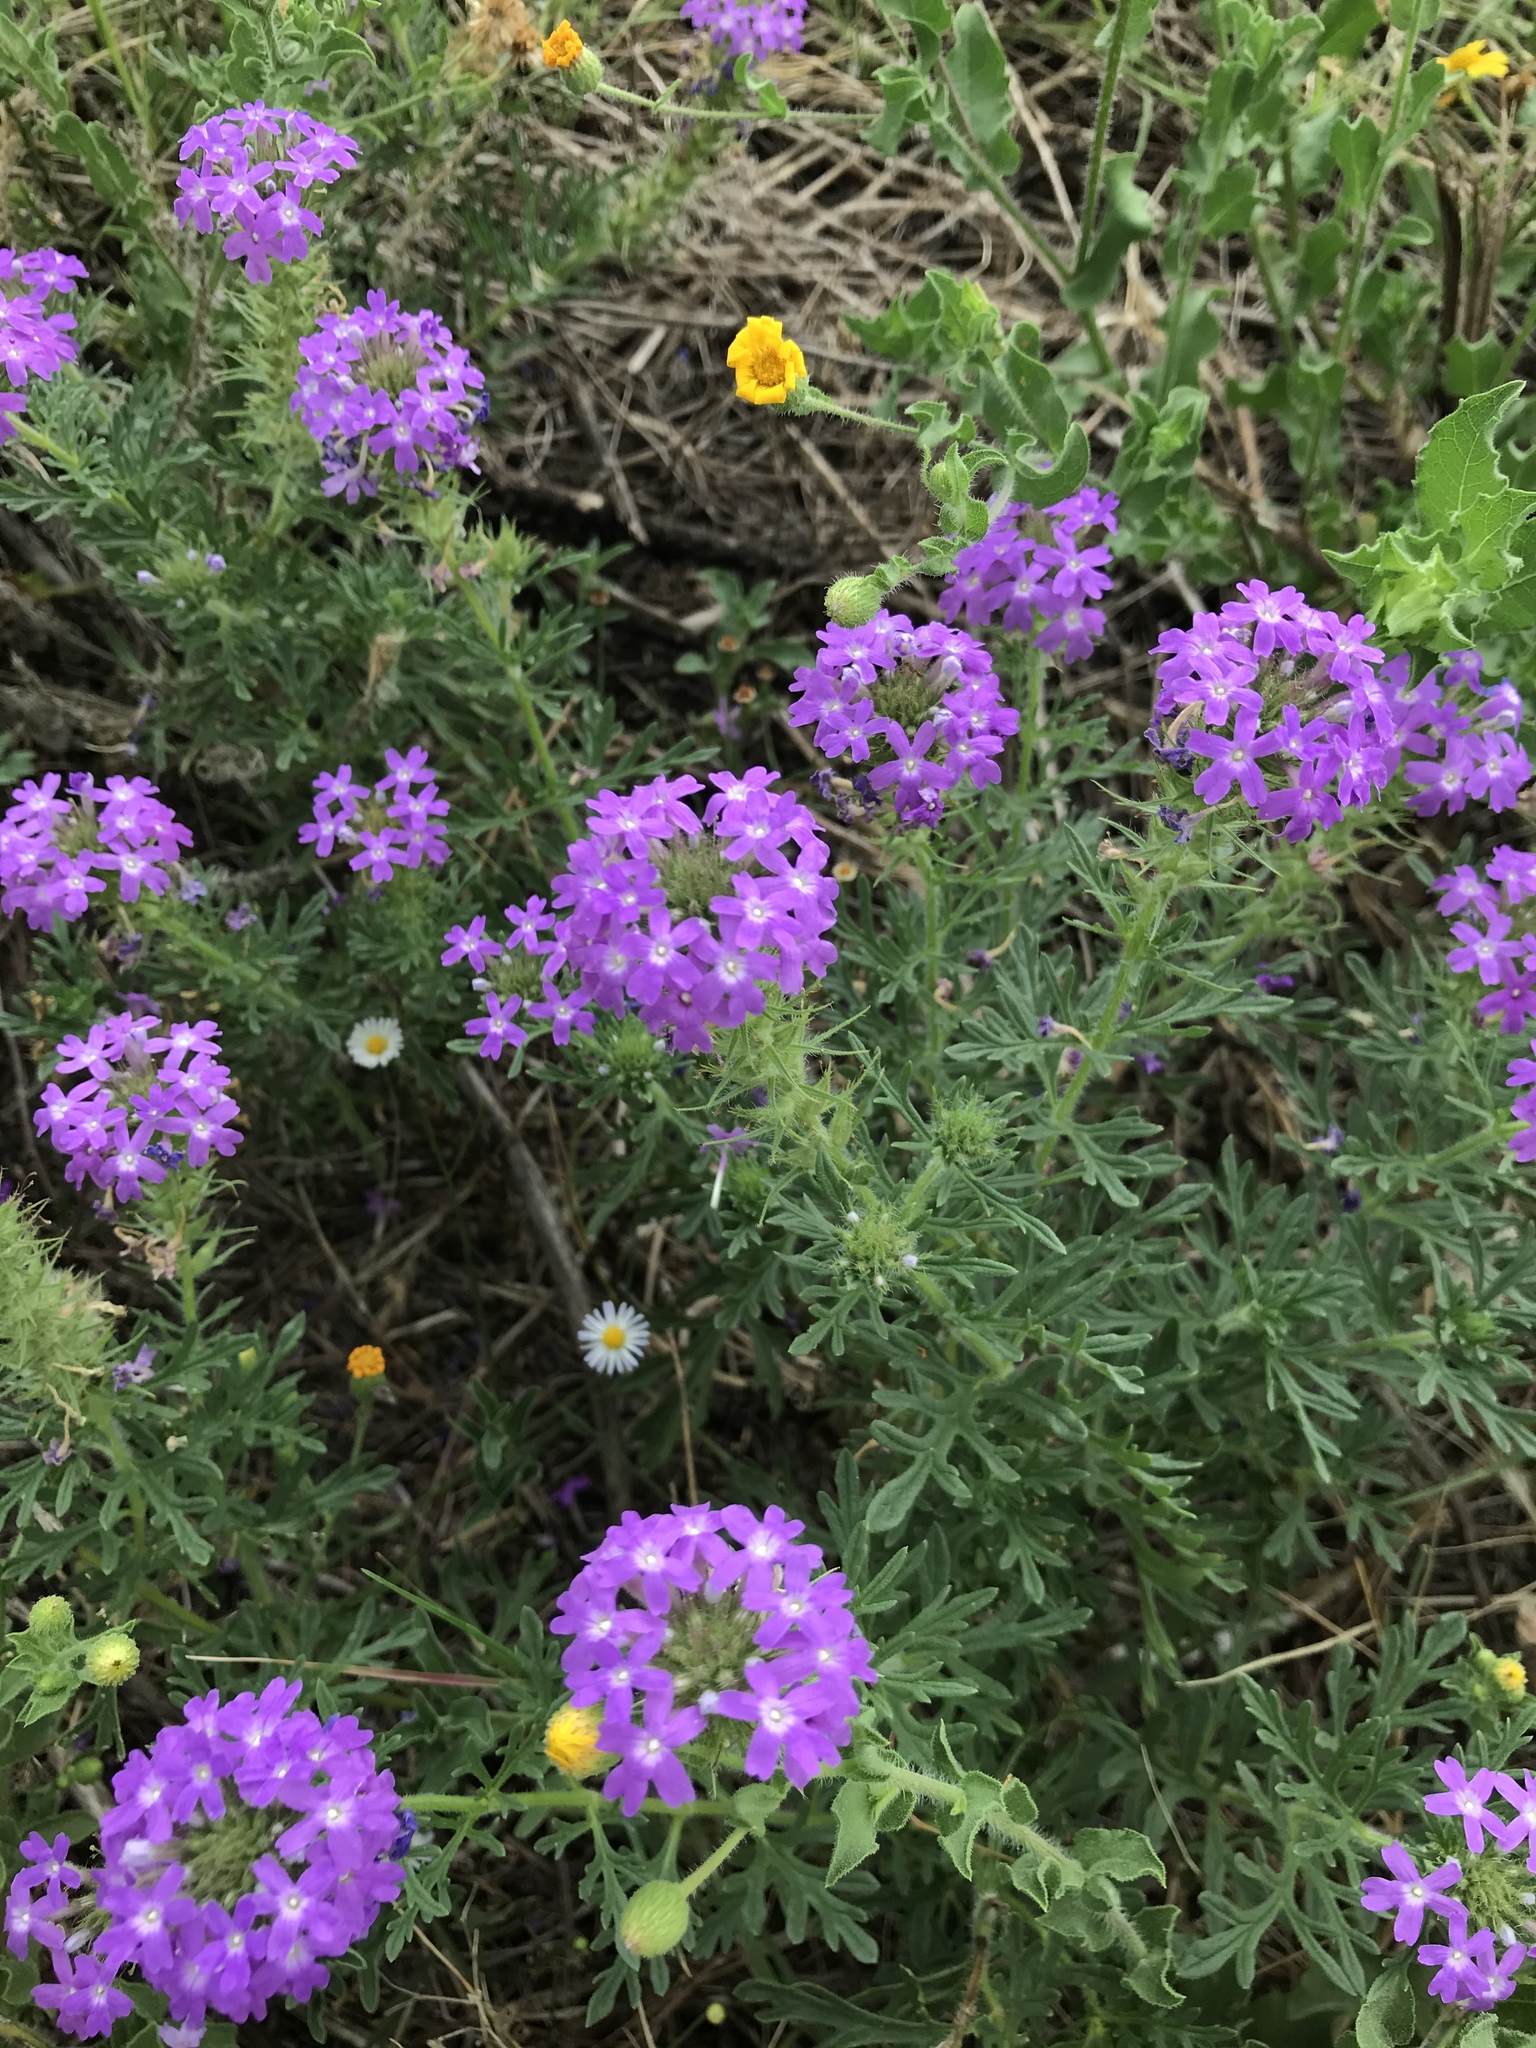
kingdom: Plantae
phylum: Tracheophyta
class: Magnoliopsida
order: Lamiales
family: Verbenaceae
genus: Verbena
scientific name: Verbena bipinnatifida
